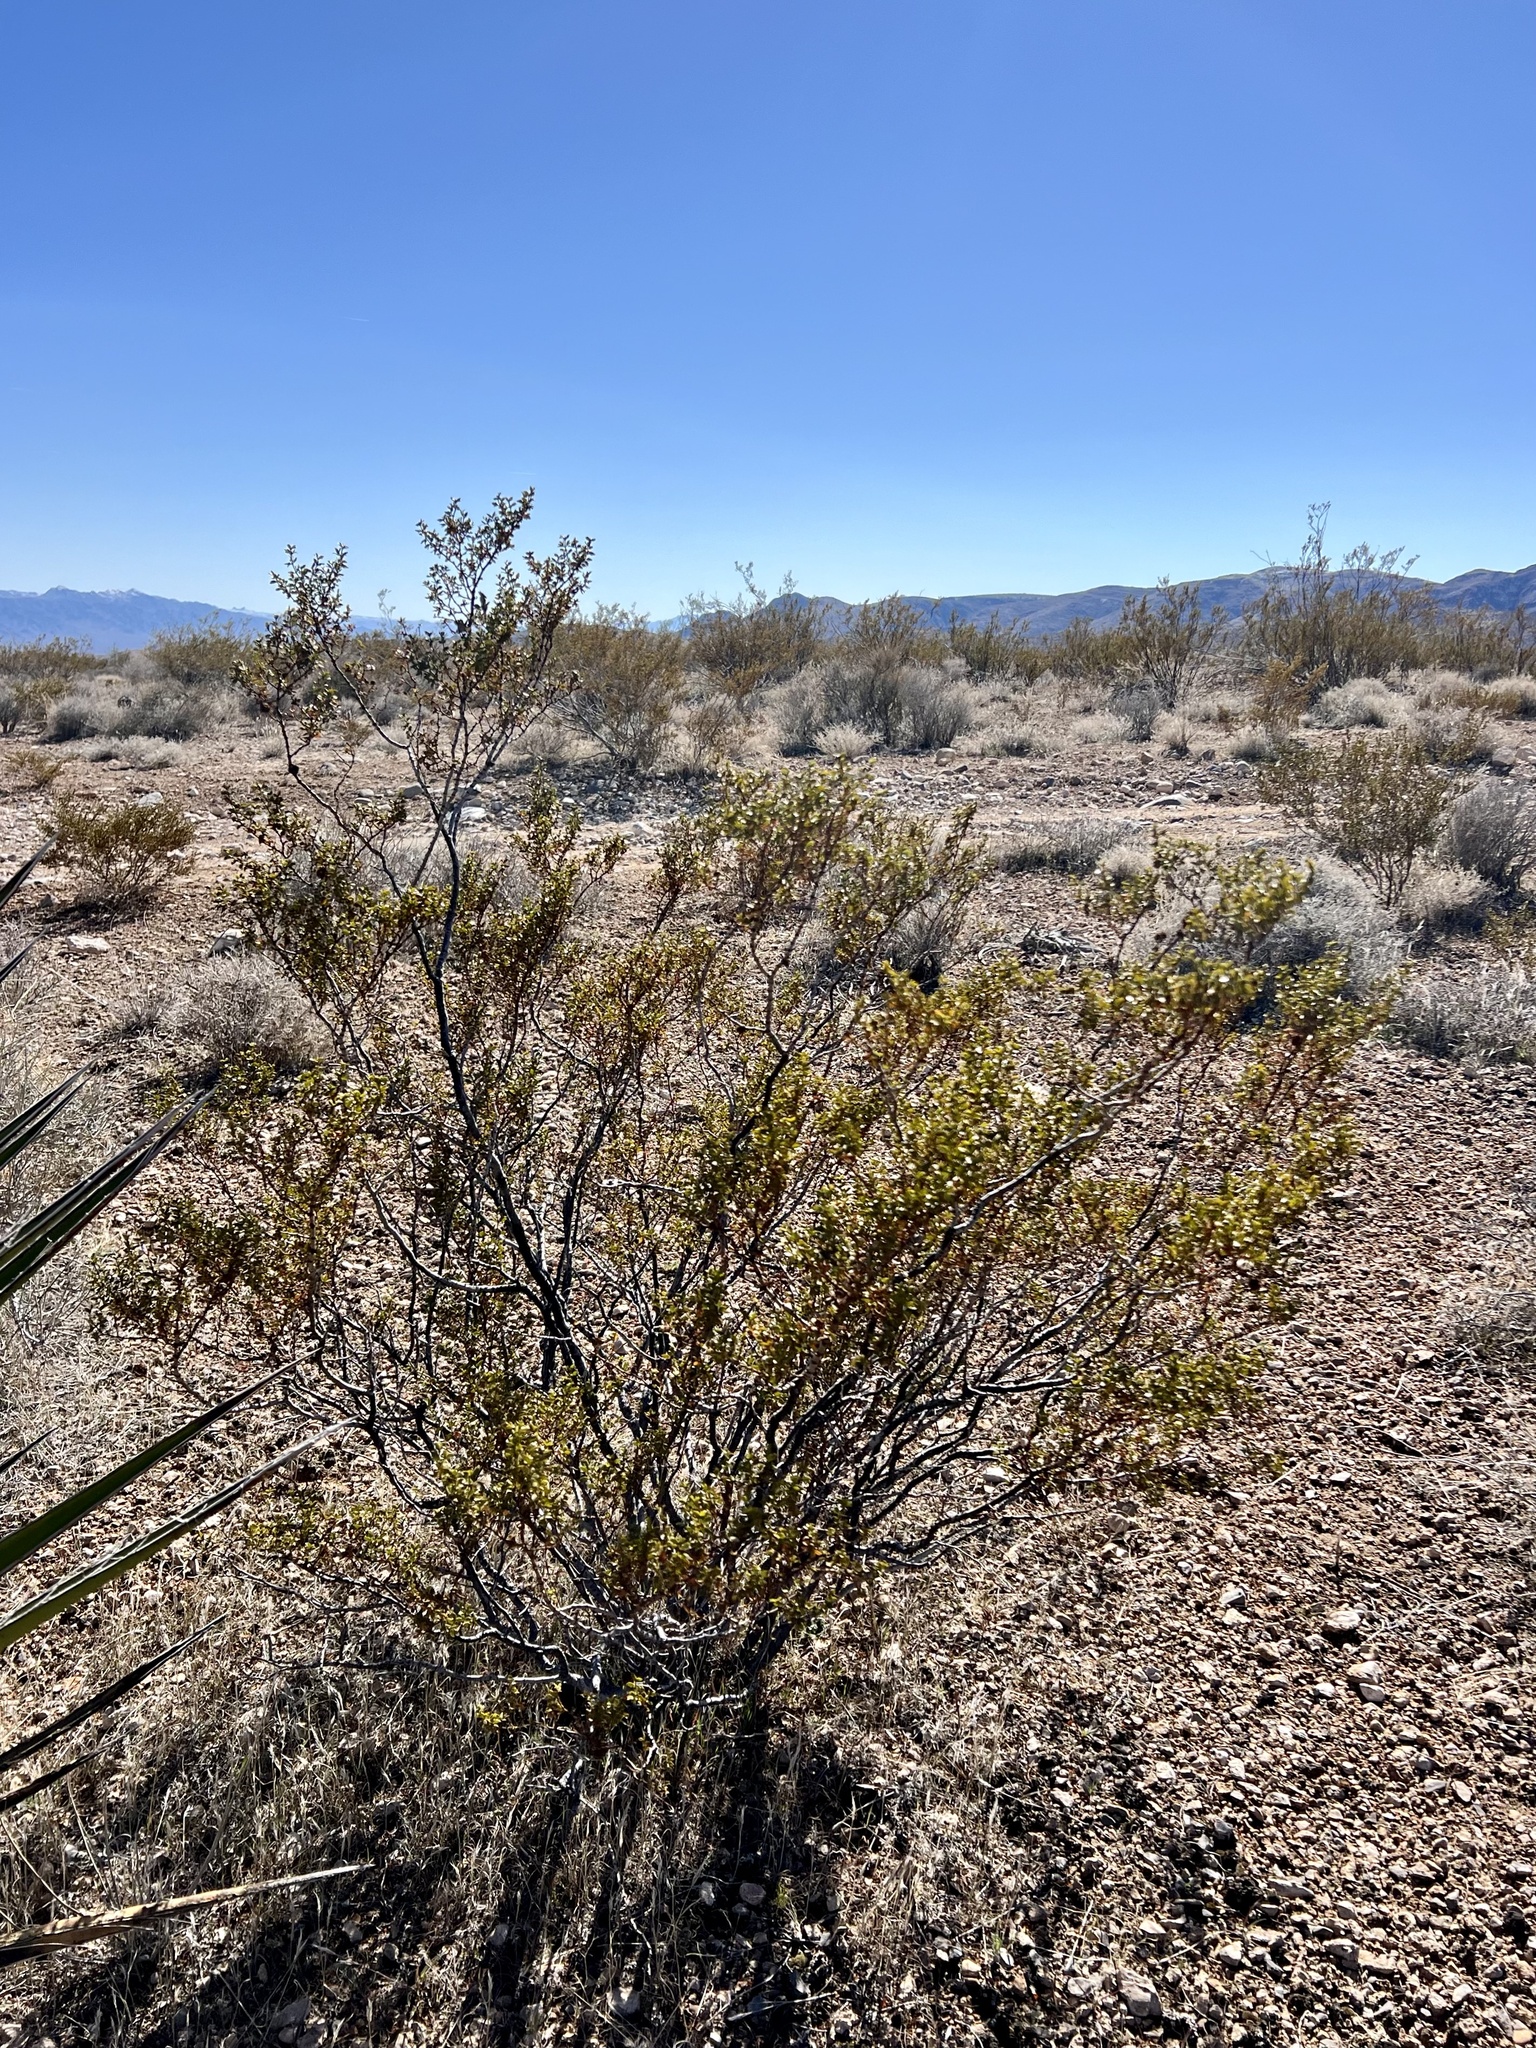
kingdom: Plantae
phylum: Tracheophyta
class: Magnoliopsida
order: Zygophyllales
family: Zygophyllaceae
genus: Larrea
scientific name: Larrea tridentata
